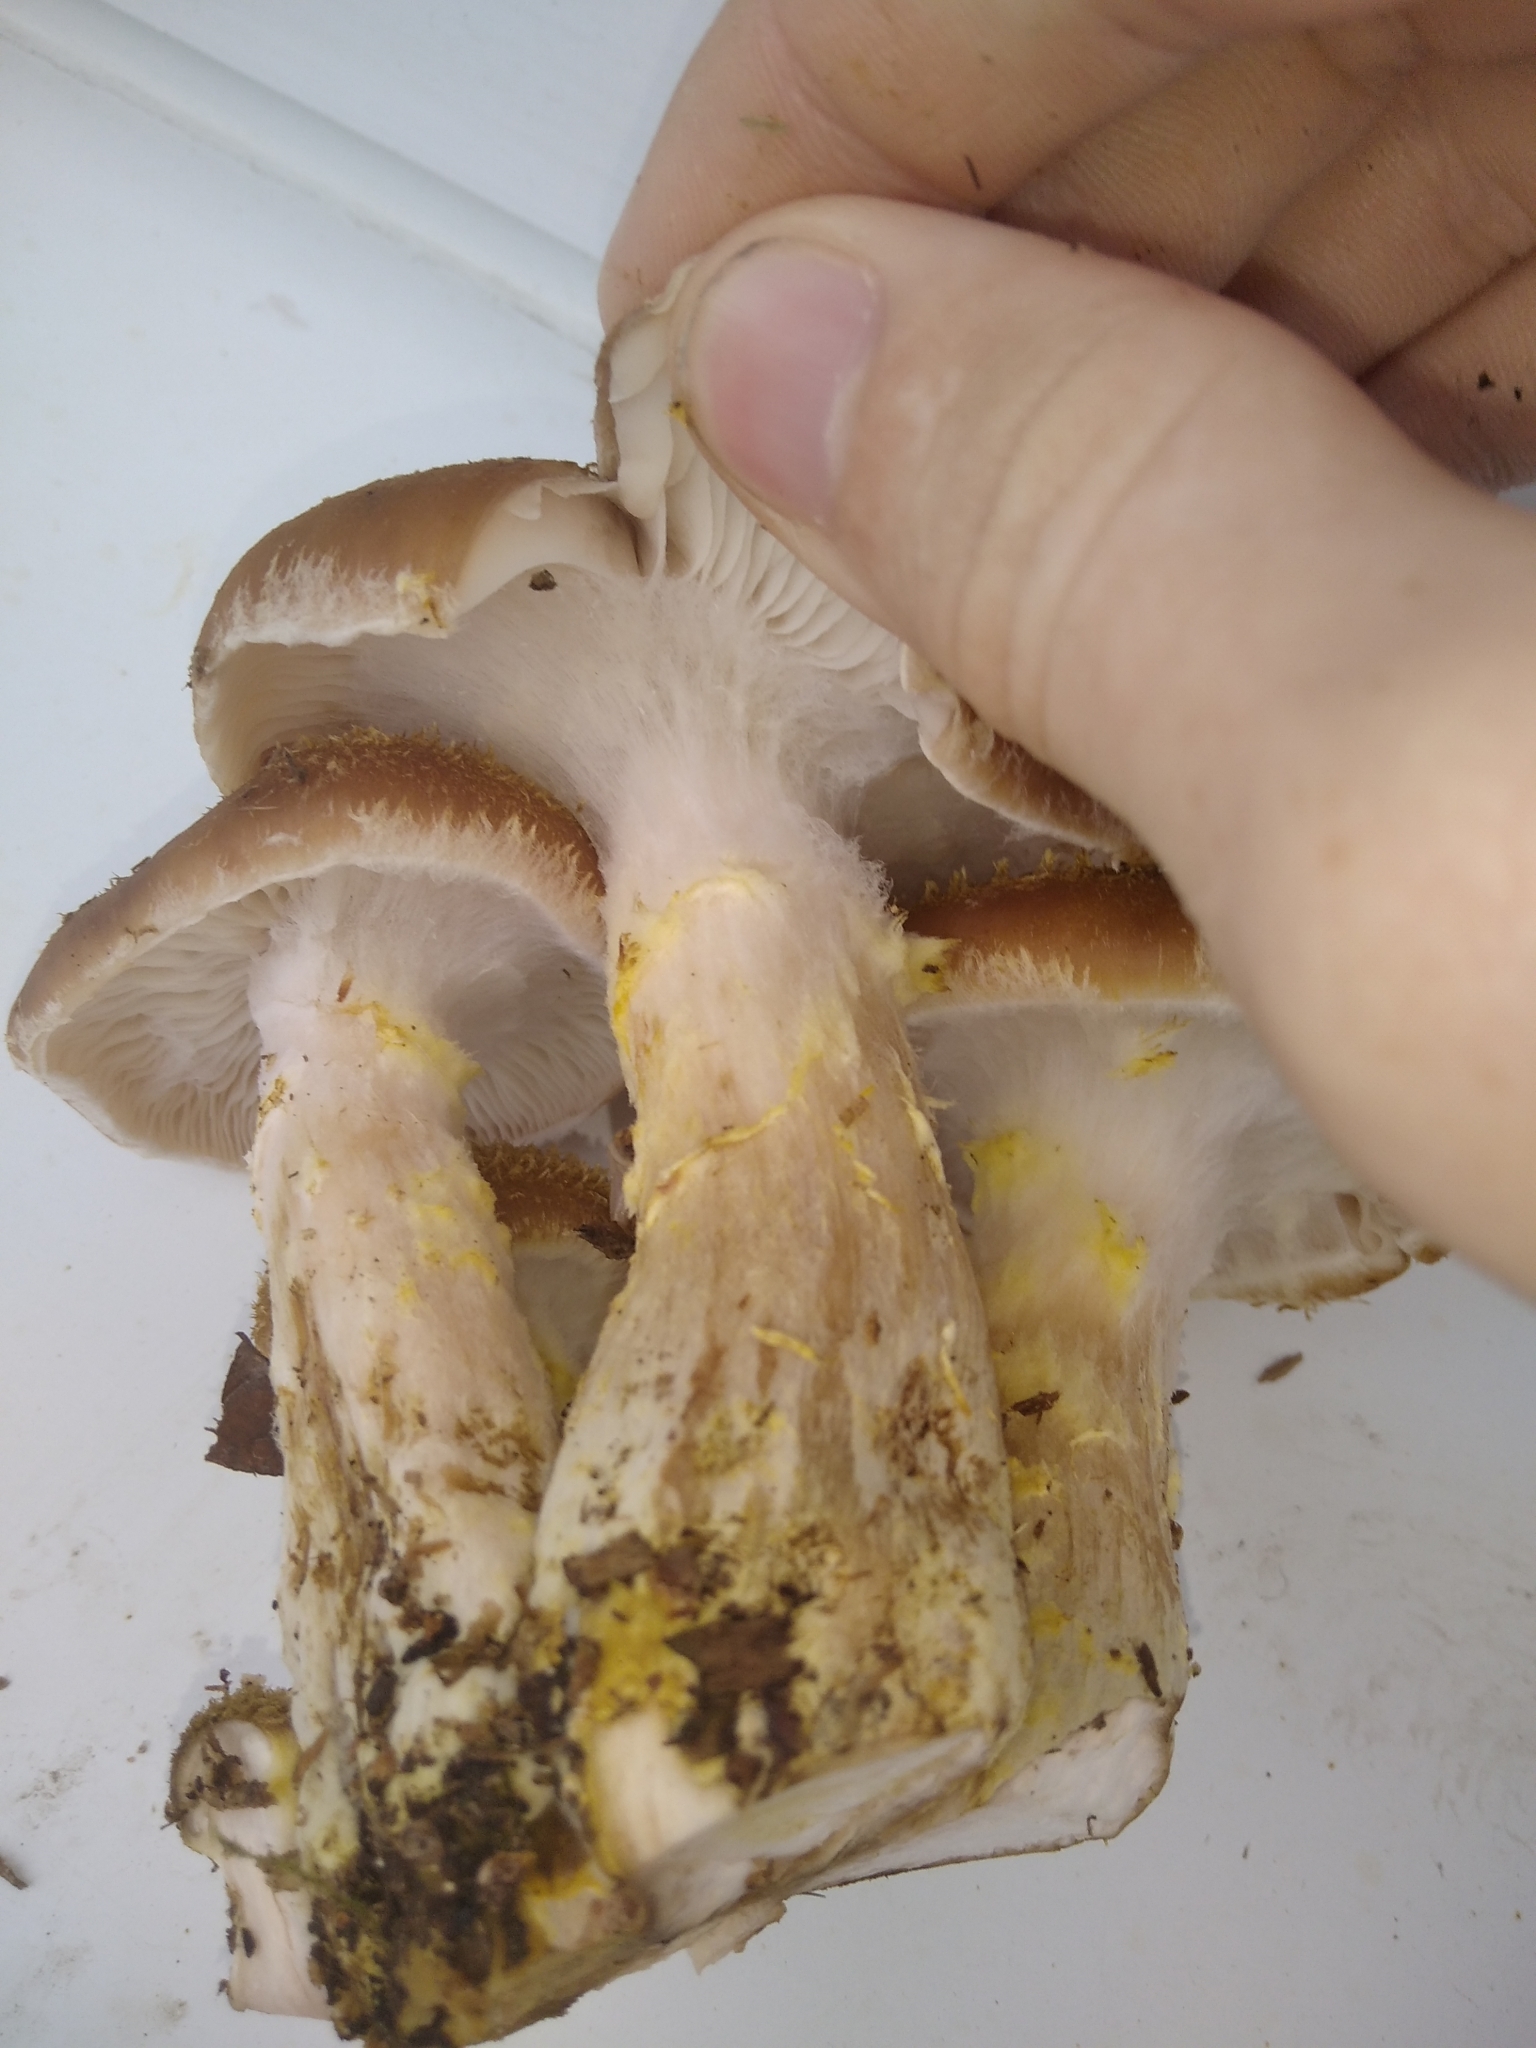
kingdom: Fungi
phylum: Basidiomycota
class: Agaricomycetes
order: Agaricales
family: Physalacriaceae
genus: Armillaria
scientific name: Armillaria gallica
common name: Bulbous honey fungus
